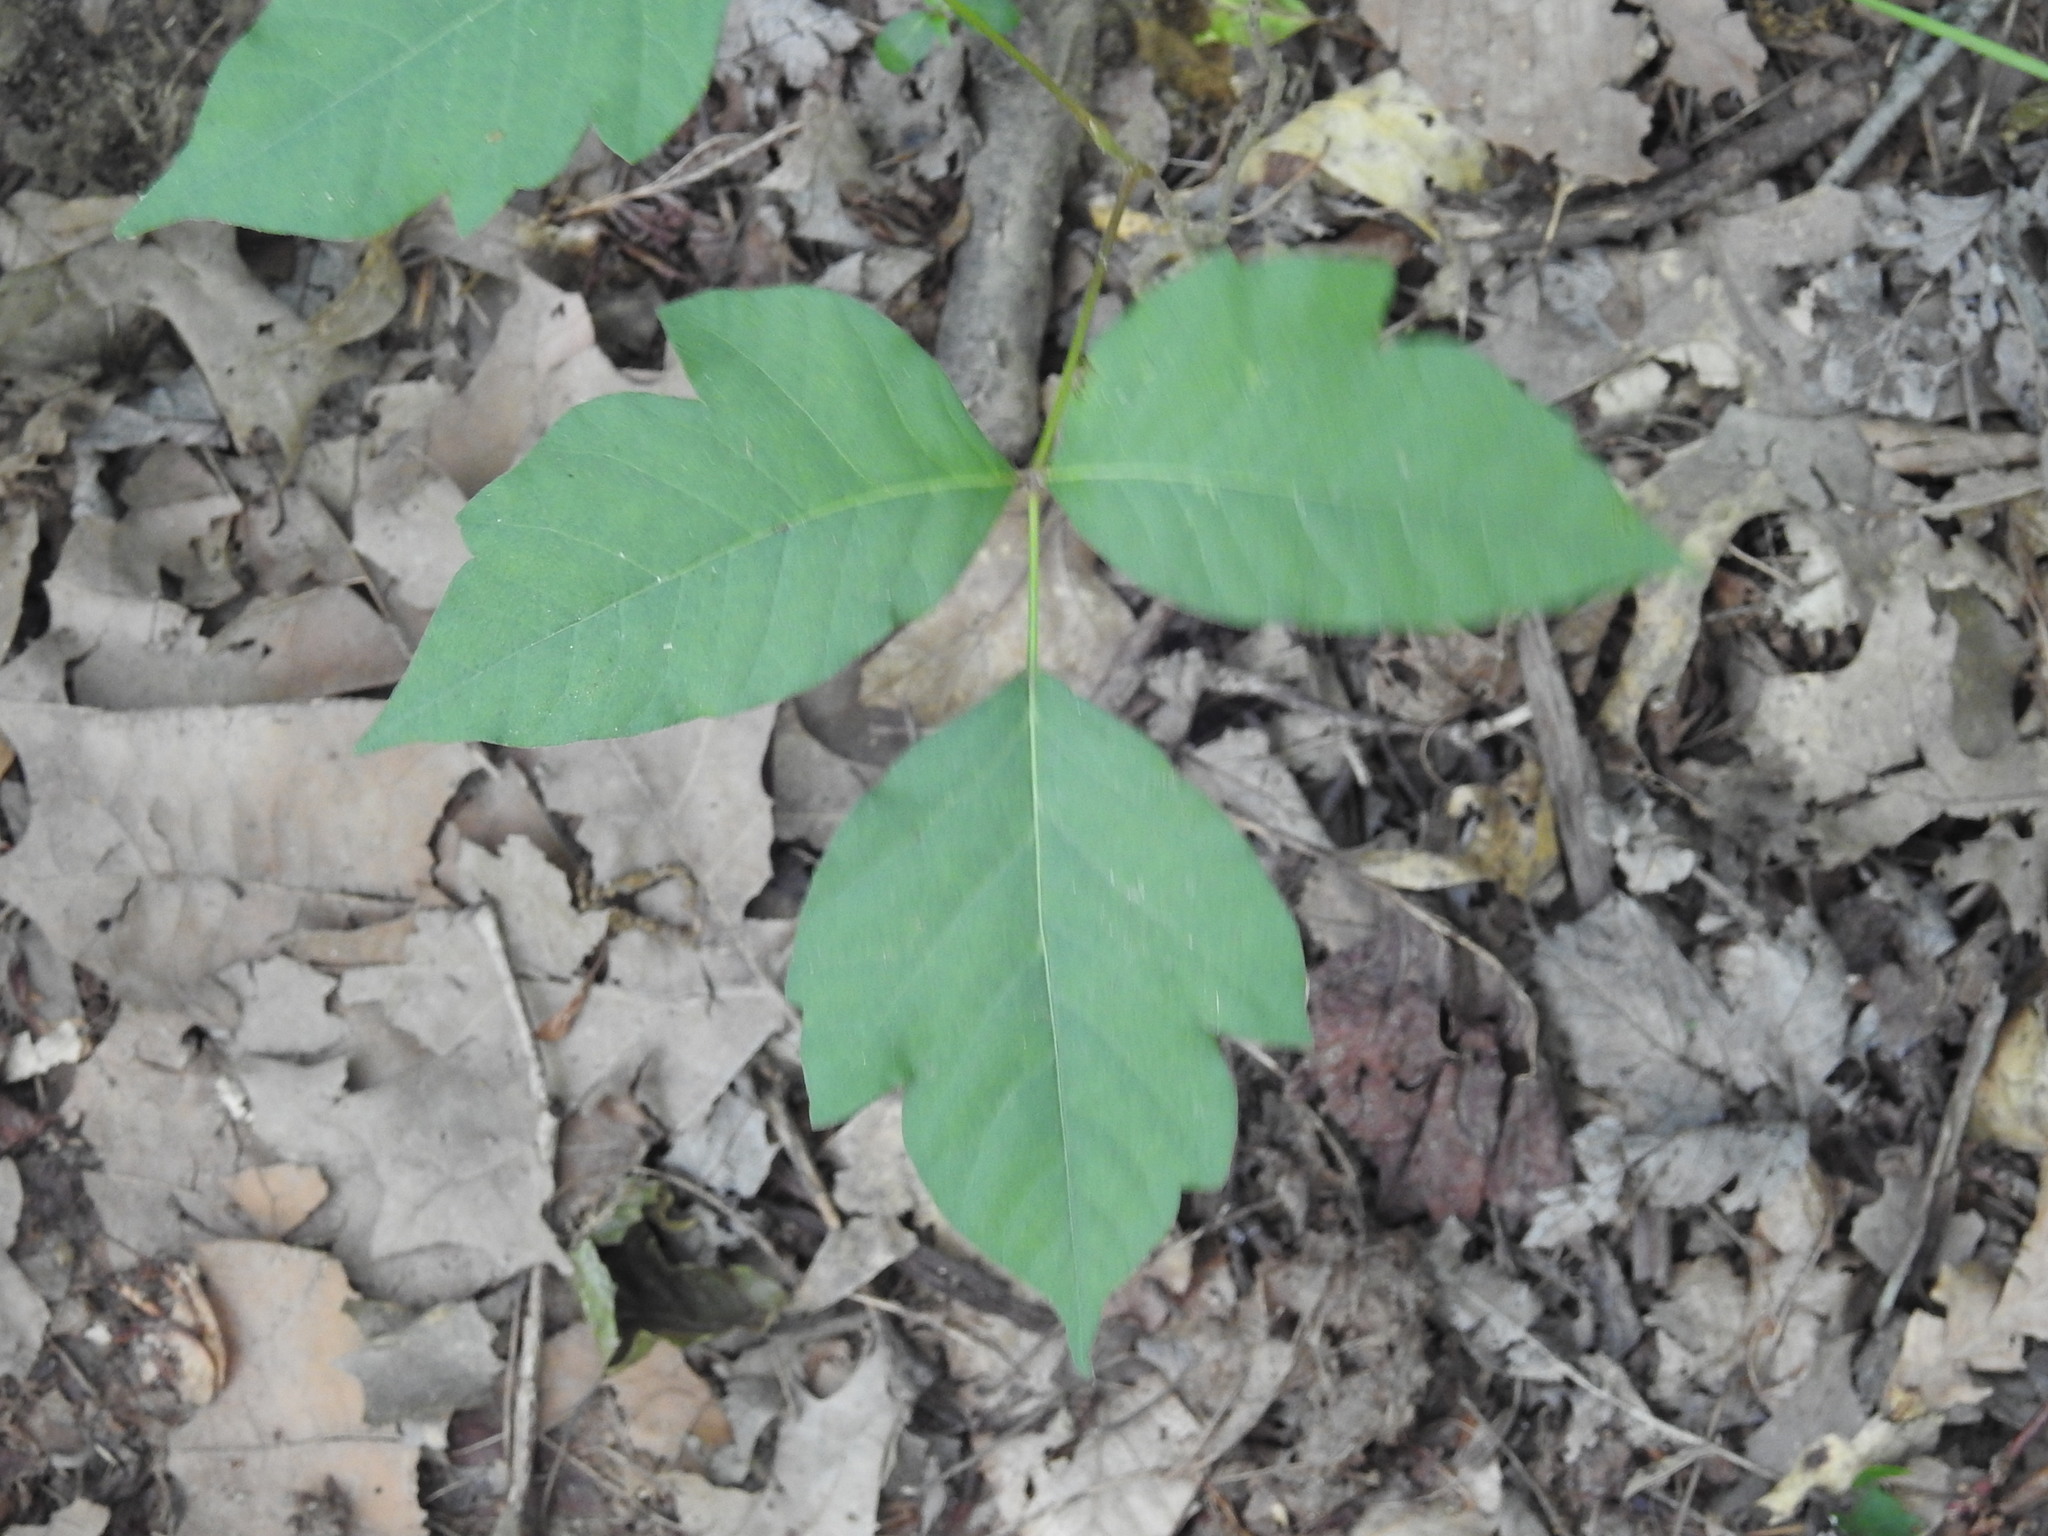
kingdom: Plantae
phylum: Tracheophyta
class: Magnoliopsida
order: Sapindales
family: Anacardiaceae
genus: Toxicodendron
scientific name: Toxicodendron radicans
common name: Poison ivy
